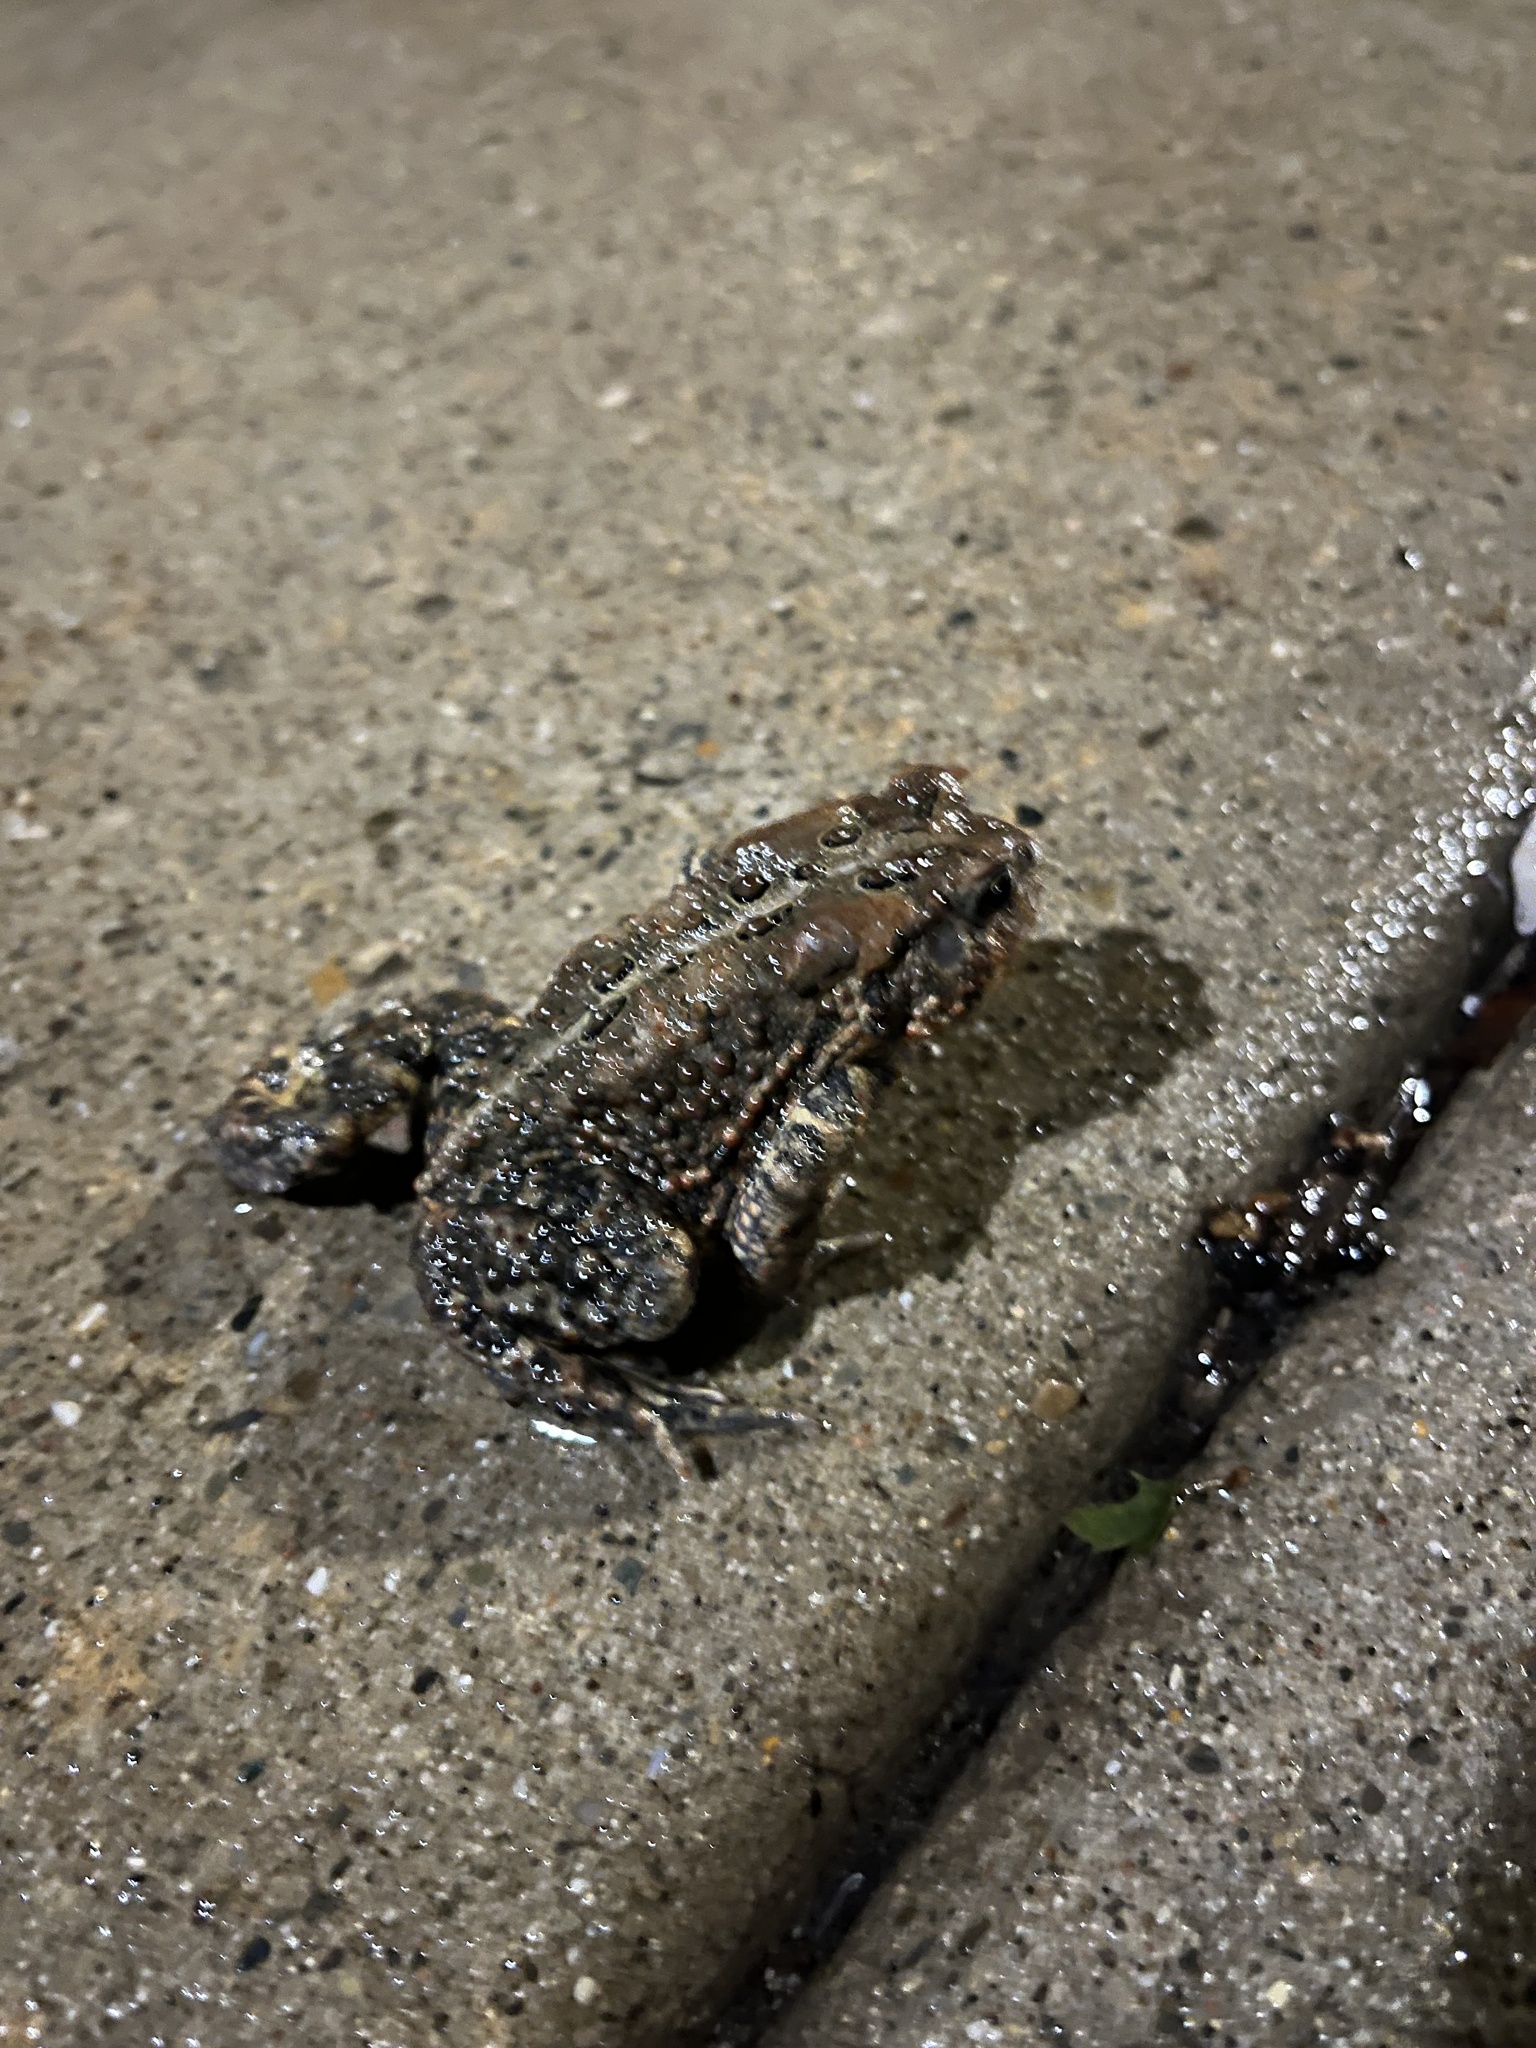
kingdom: Animalia
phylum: Chordata
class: Amphibia
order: Anura
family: Bufonidae
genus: Anaxyrus
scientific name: Anaxyrus americanus
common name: American toad
